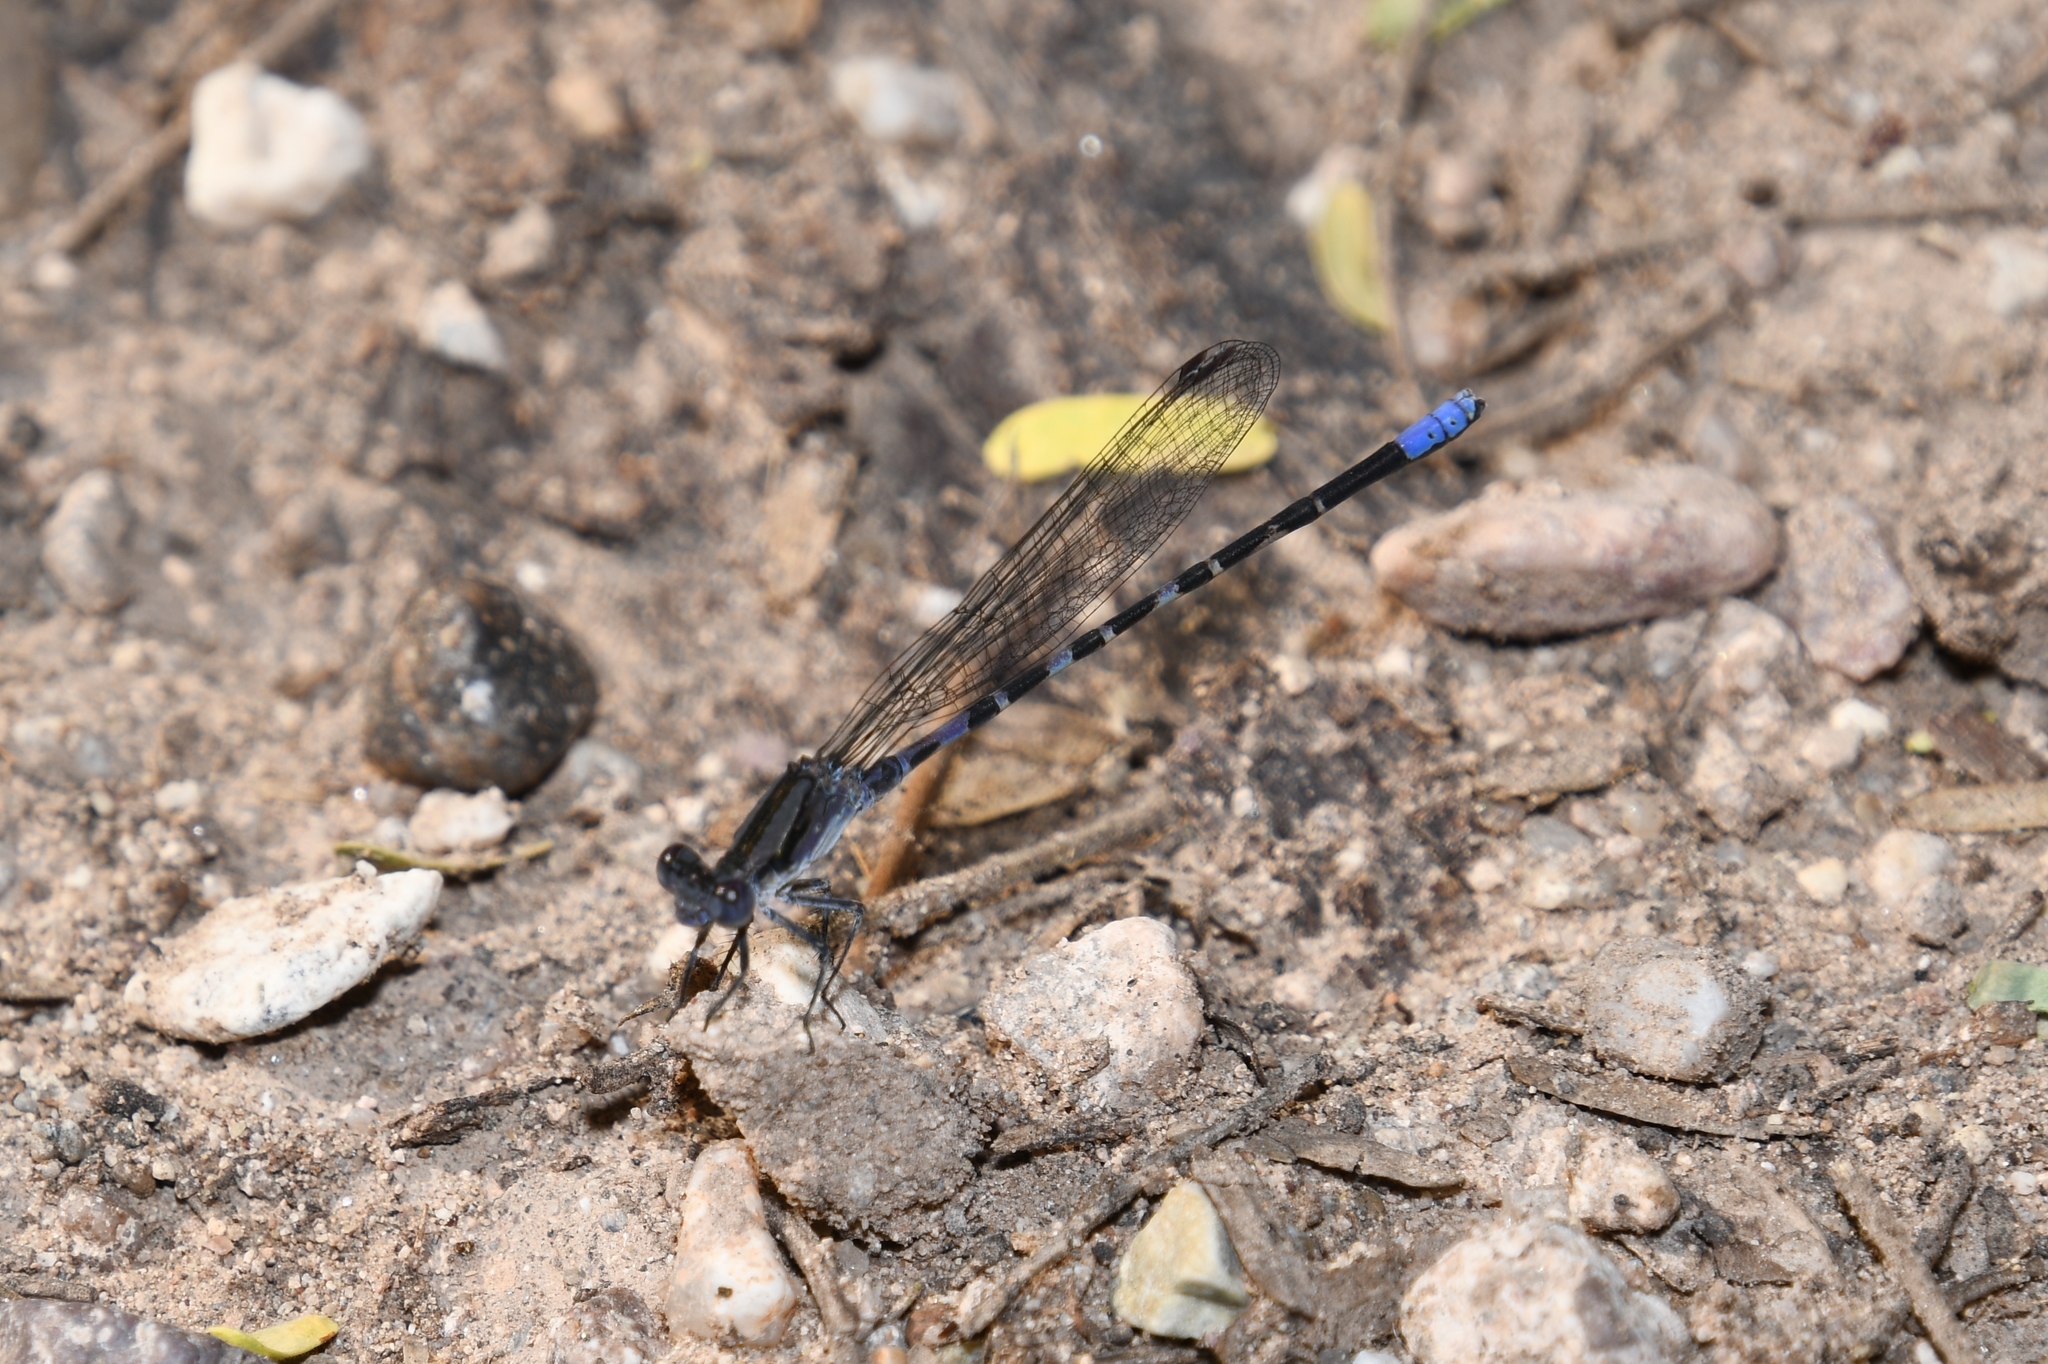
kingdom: Animalia
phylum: Arthropoda
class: Insecta
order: Odonata
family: Coenagrionidae
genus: Argia
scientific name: Argia immunda
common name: Kiowa dancer
